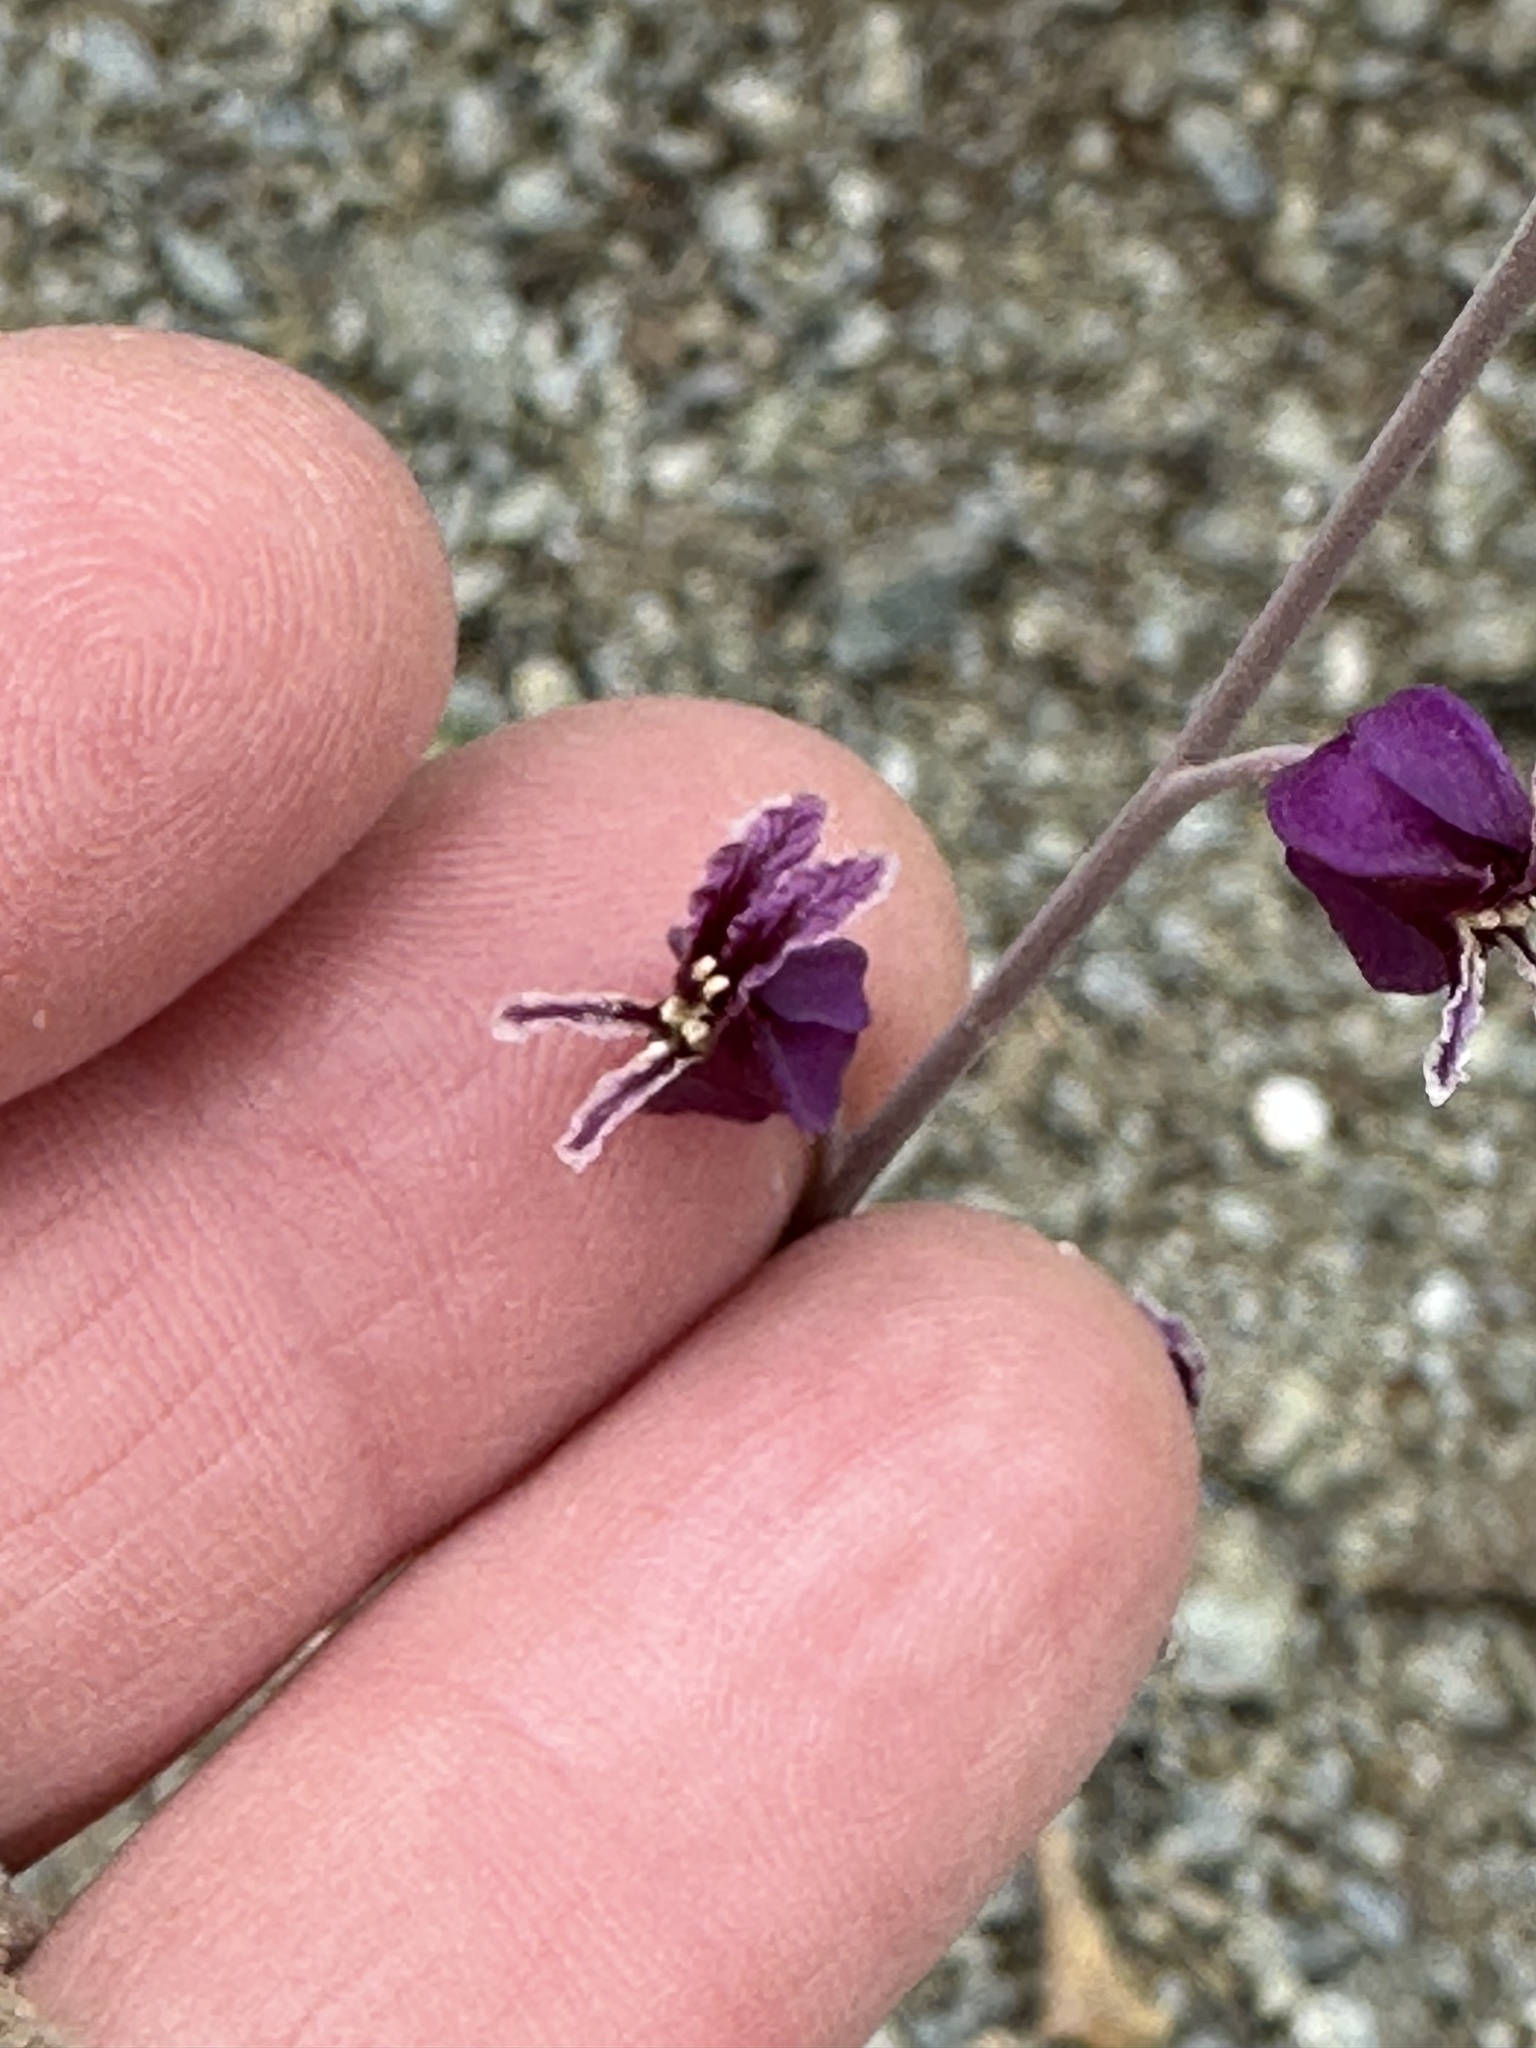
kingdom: Plantae
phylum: Tracheophyta
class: Magnoliopsida
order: Brassicales
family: Brassicaceae
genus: Streptanthus
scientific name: Streptanthus glandulosus
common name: Jewel-flower
